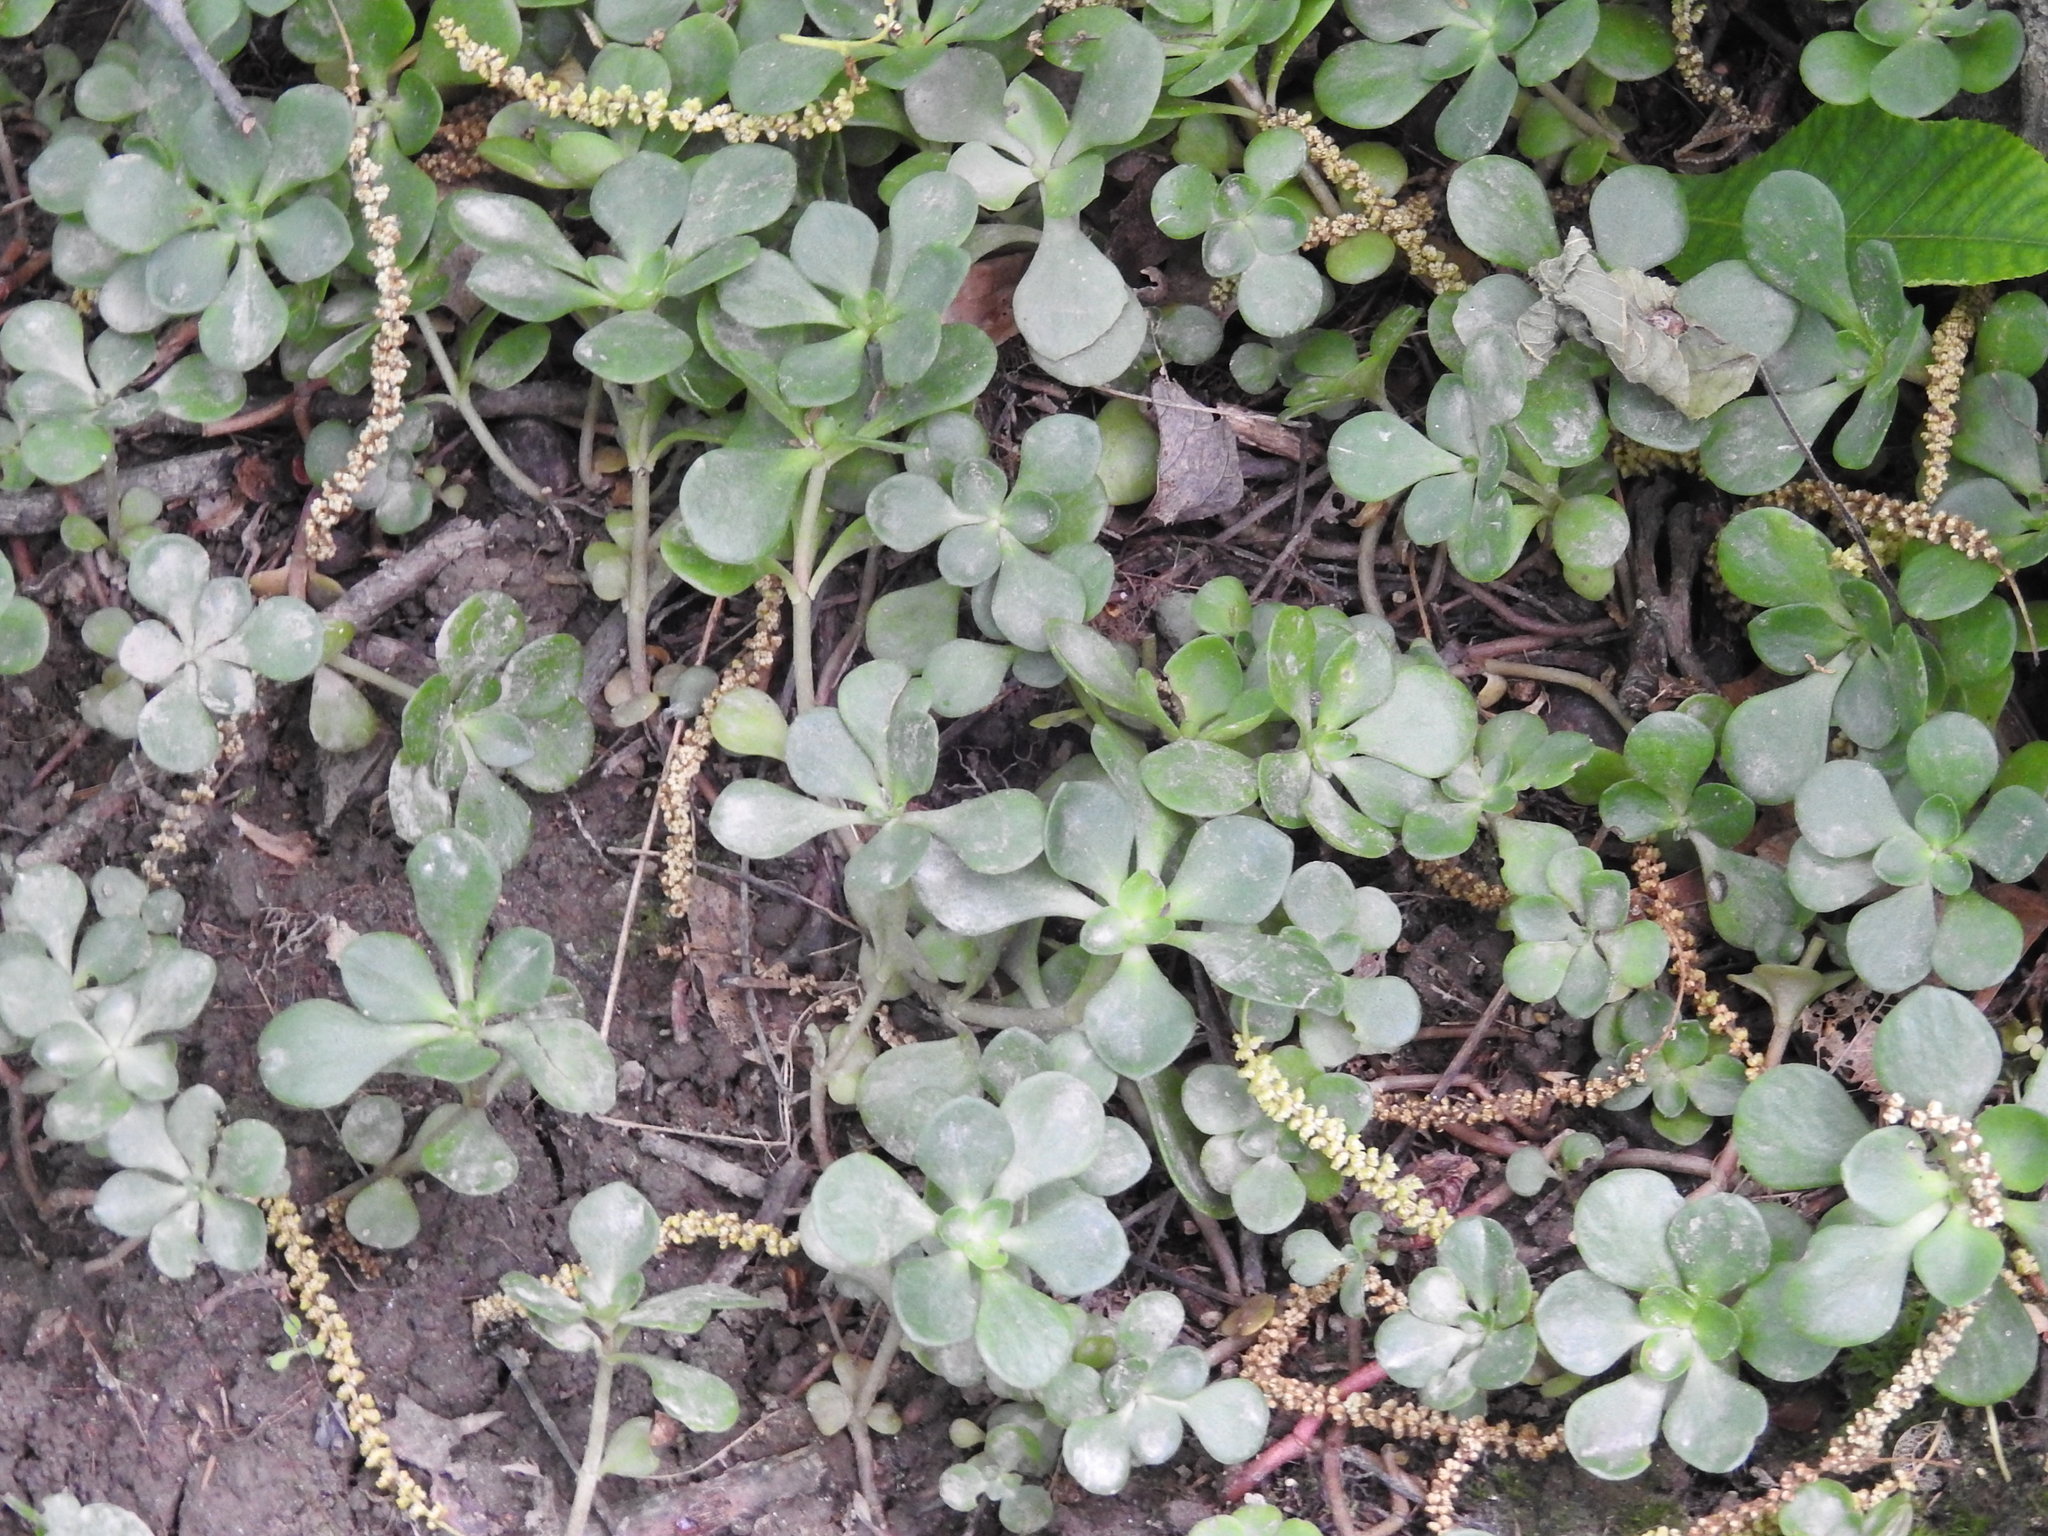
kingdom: Plantae
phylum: Tracheophyta
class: Magnoliopsida
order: Saxifragales
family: Crassulaceae
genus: Sedum
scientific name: Sedum ternatum
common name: Wild stonecrop
